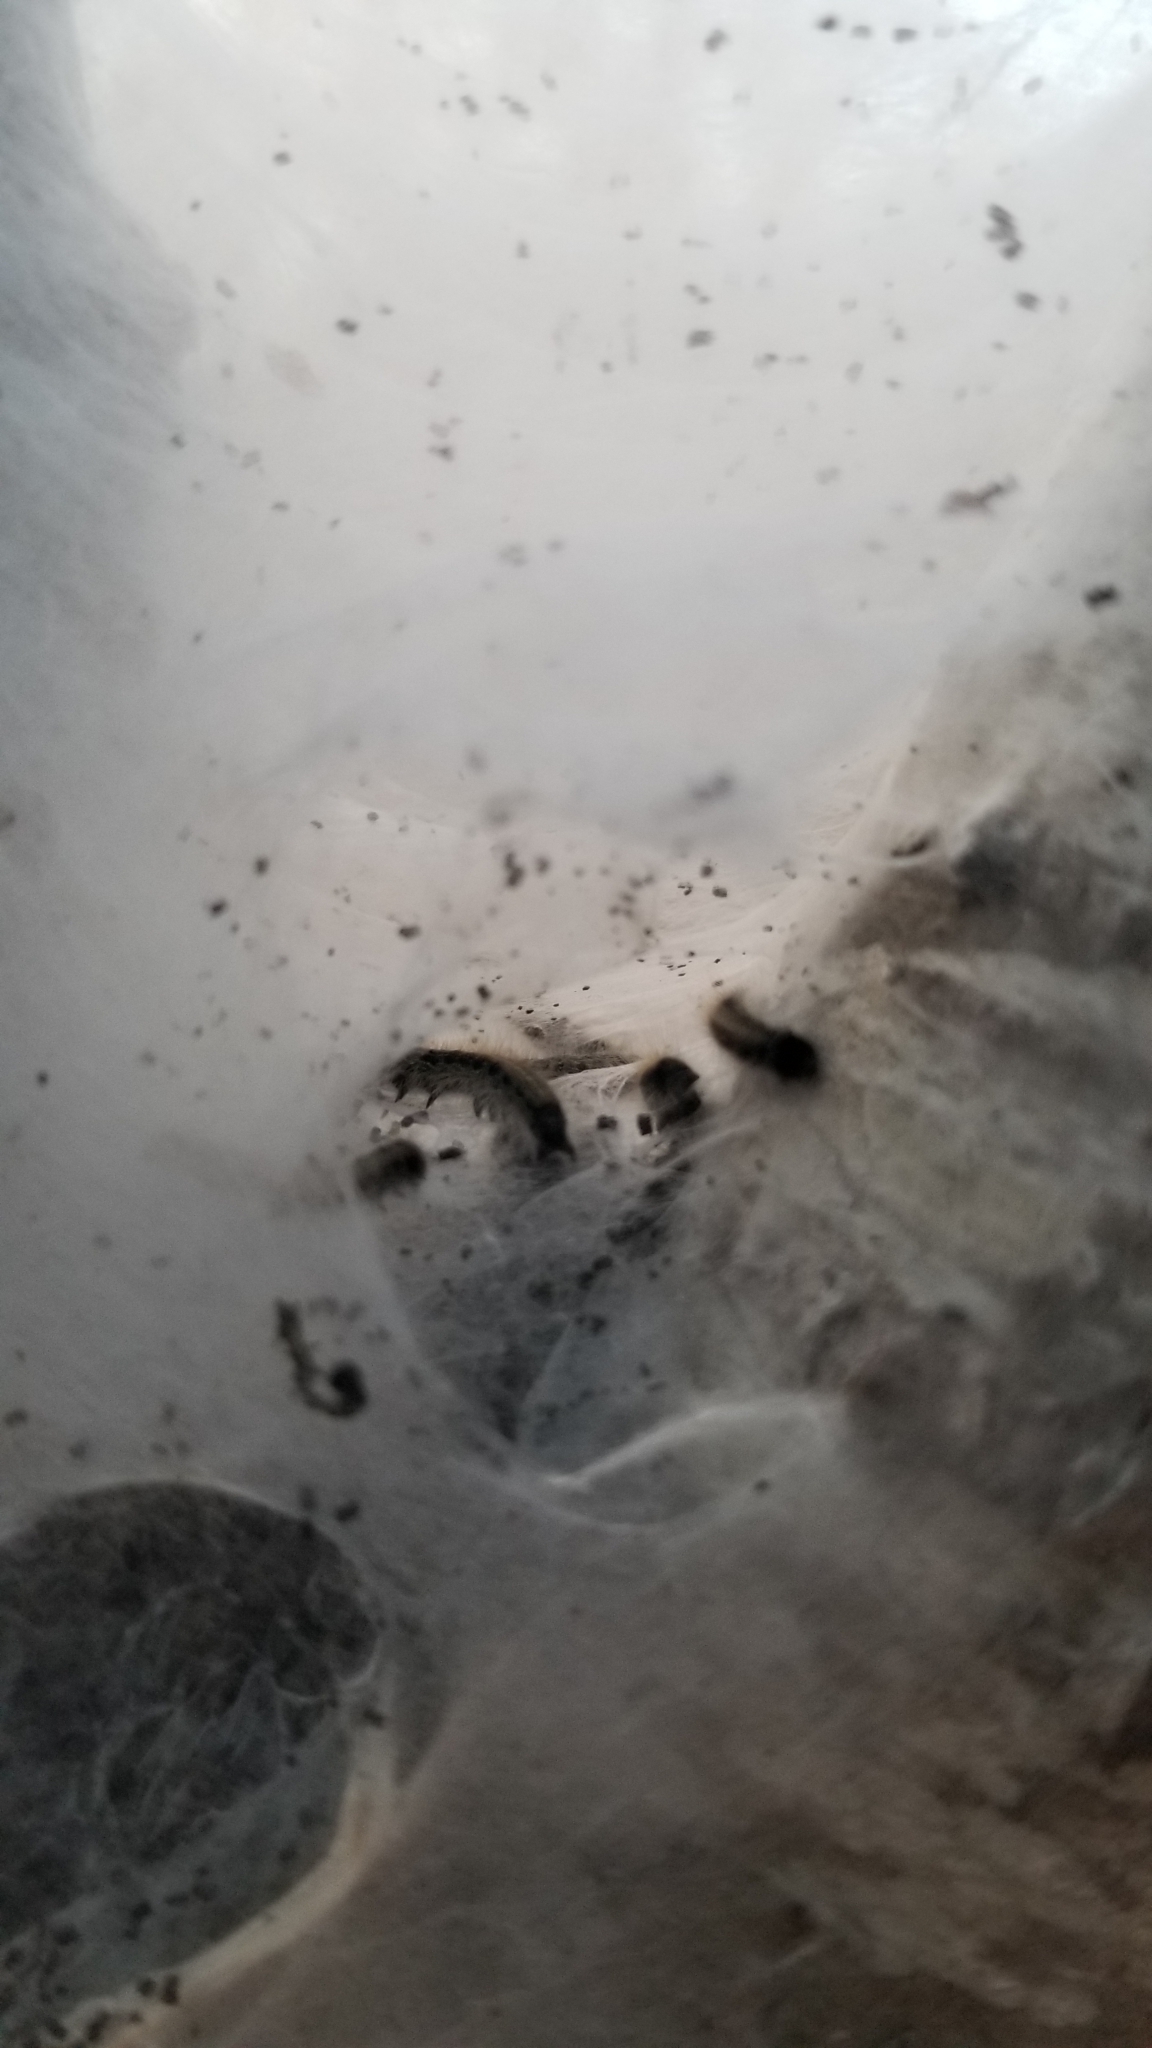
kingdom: Animalia
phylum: Arthropoda
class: Insecta
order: Lepidoptera
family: Lasiocampidae
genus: Malacosoma
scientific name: Malacosoma americana
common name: Eastern tent caterpillar moth
